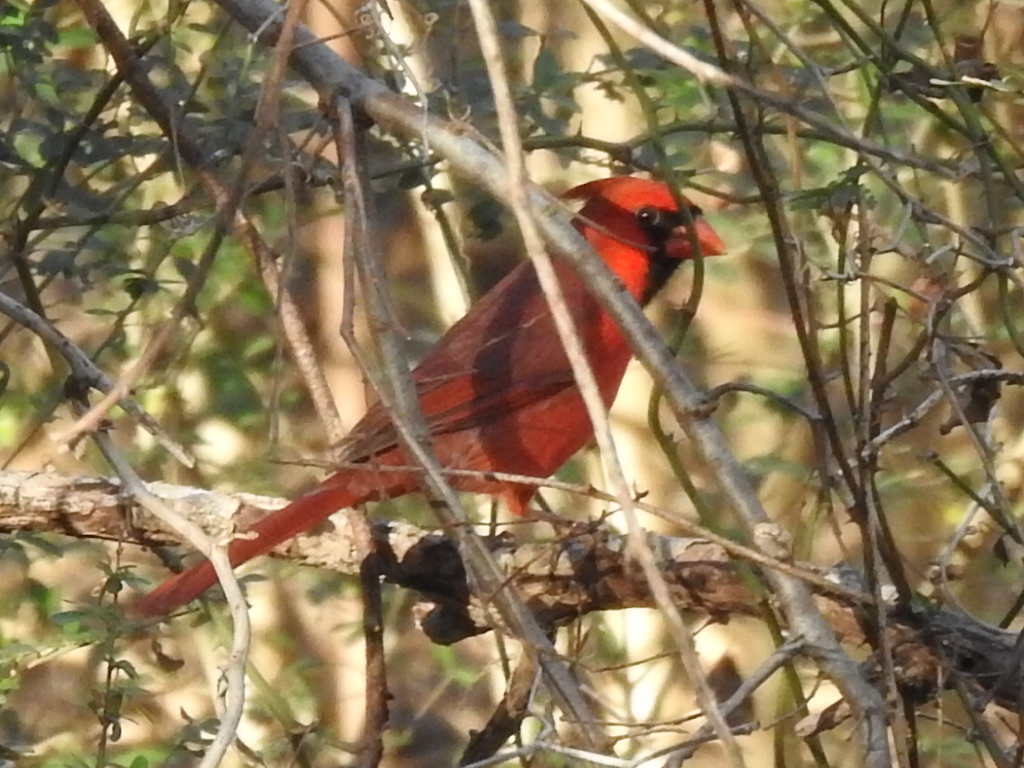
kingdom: Animalia
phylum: Chordata
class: Aves
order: Passeriformes
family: Cardinalidae
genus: Cardinalis
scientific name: Cardinalis cardinalis
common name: Northern cardinal
